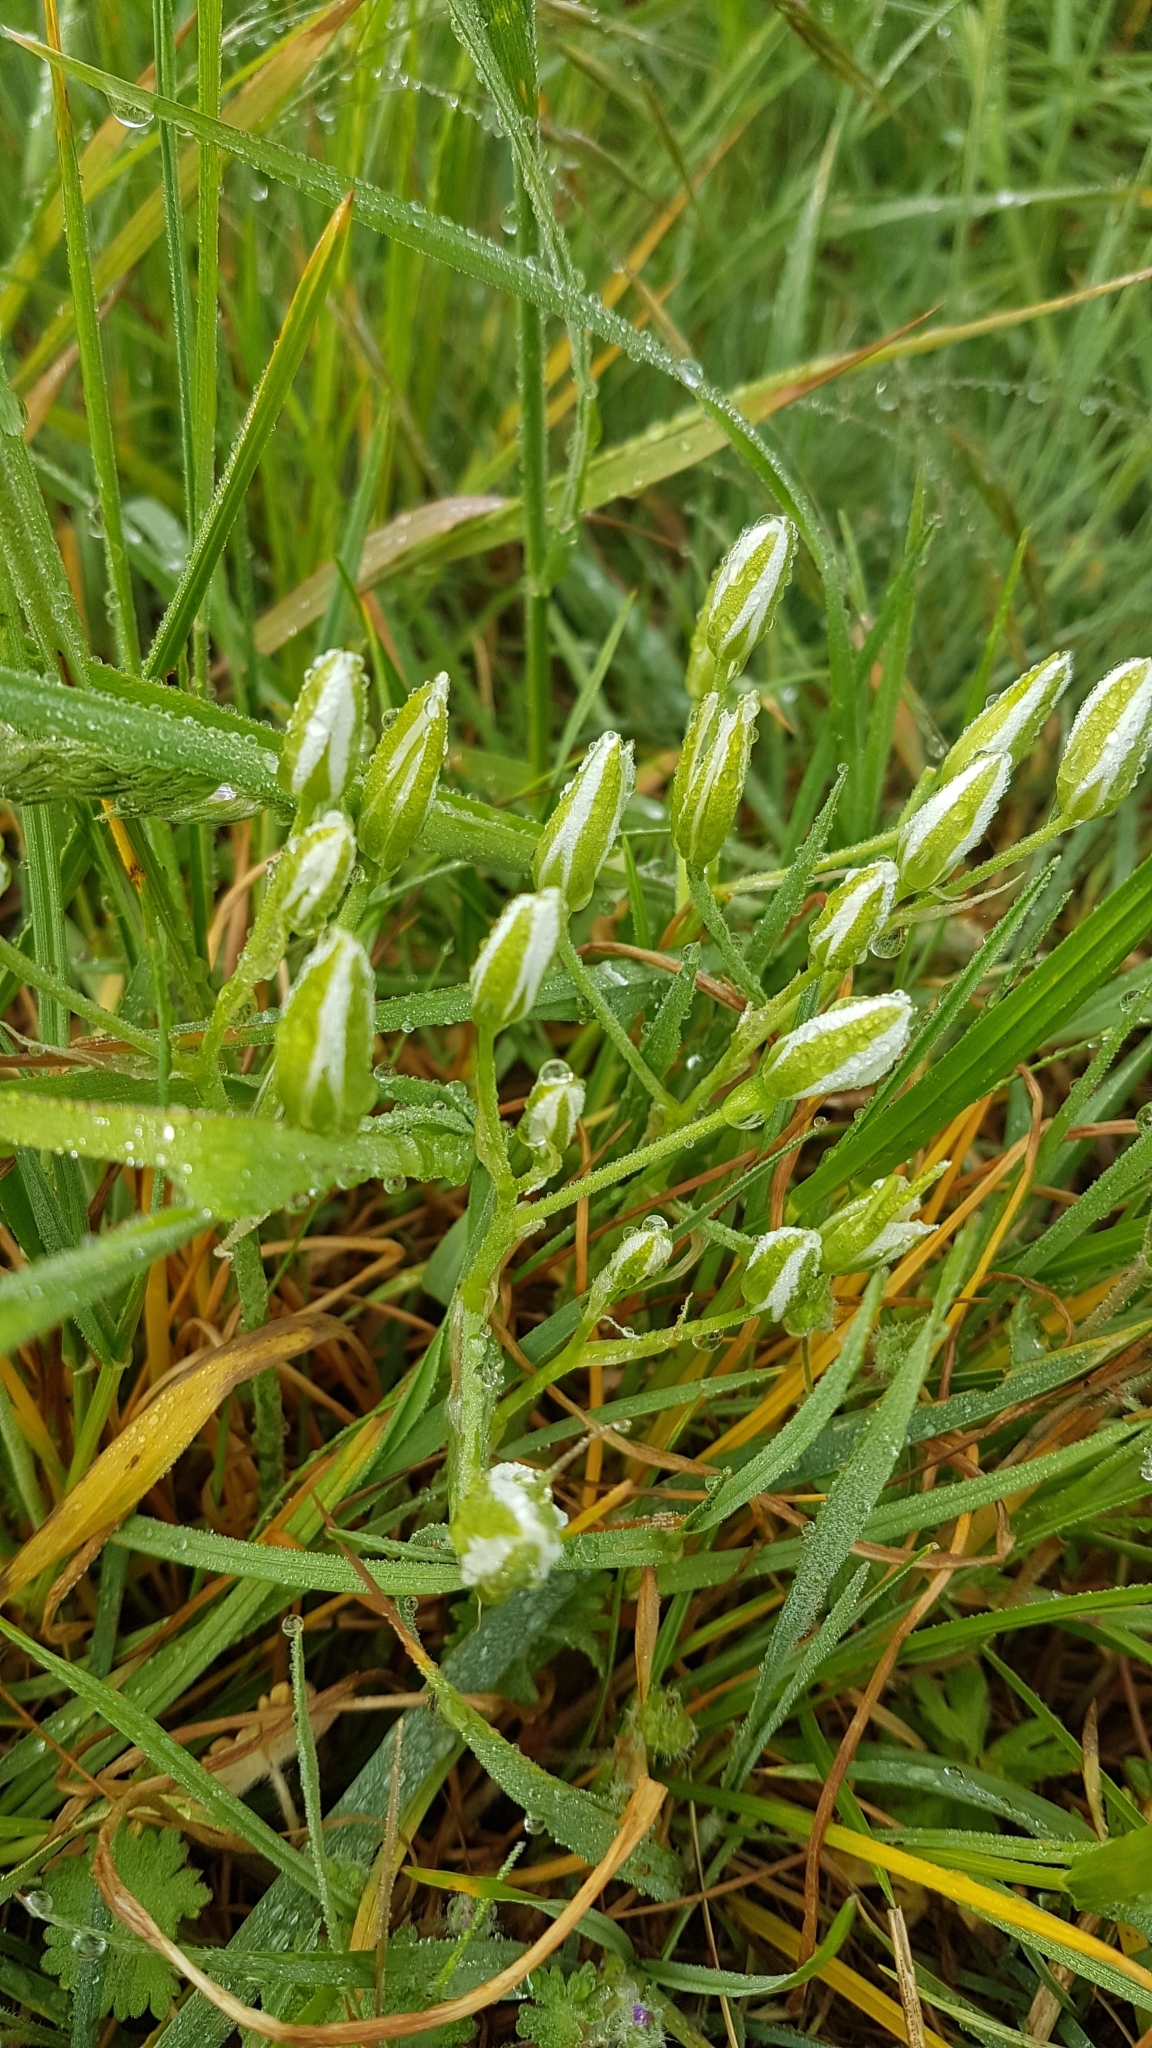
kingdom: Plantae
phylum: Tracheophyta
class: Liliopsida
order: Asparagales
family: Asparagaceae
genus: Ornithogalum
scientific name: Ornithogalum umbellatum
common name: Garden star-of-bethlehem
